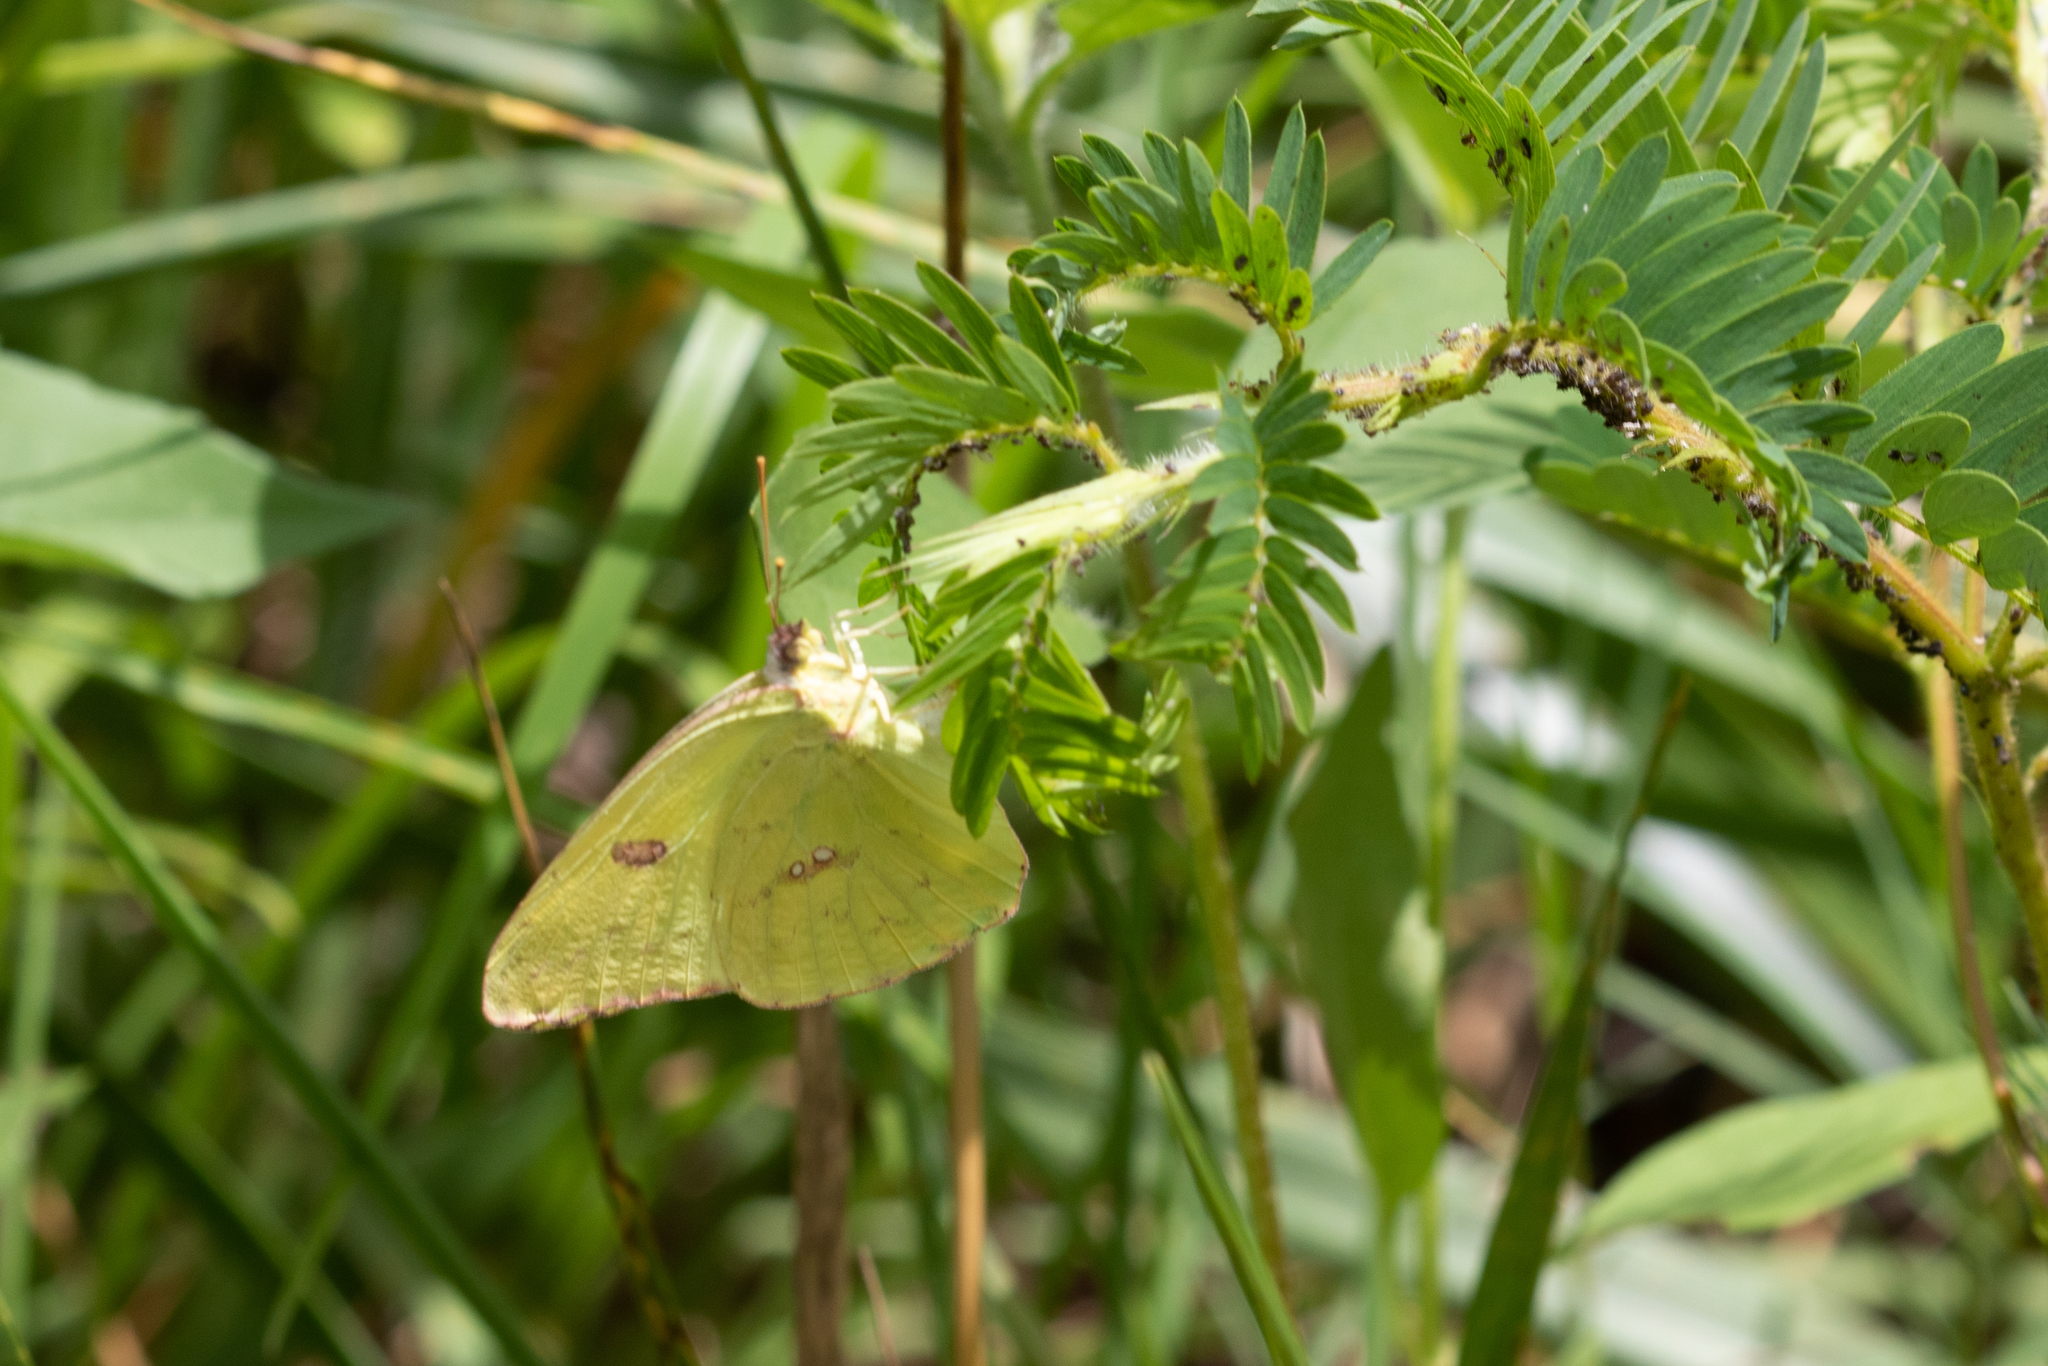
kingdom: Animalia
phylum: Arthropoda
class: Insecta
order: Lepidoptera
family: Pieridae
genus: Phoebis
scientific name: Phoebis sennae
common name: Cloudless sulphur
